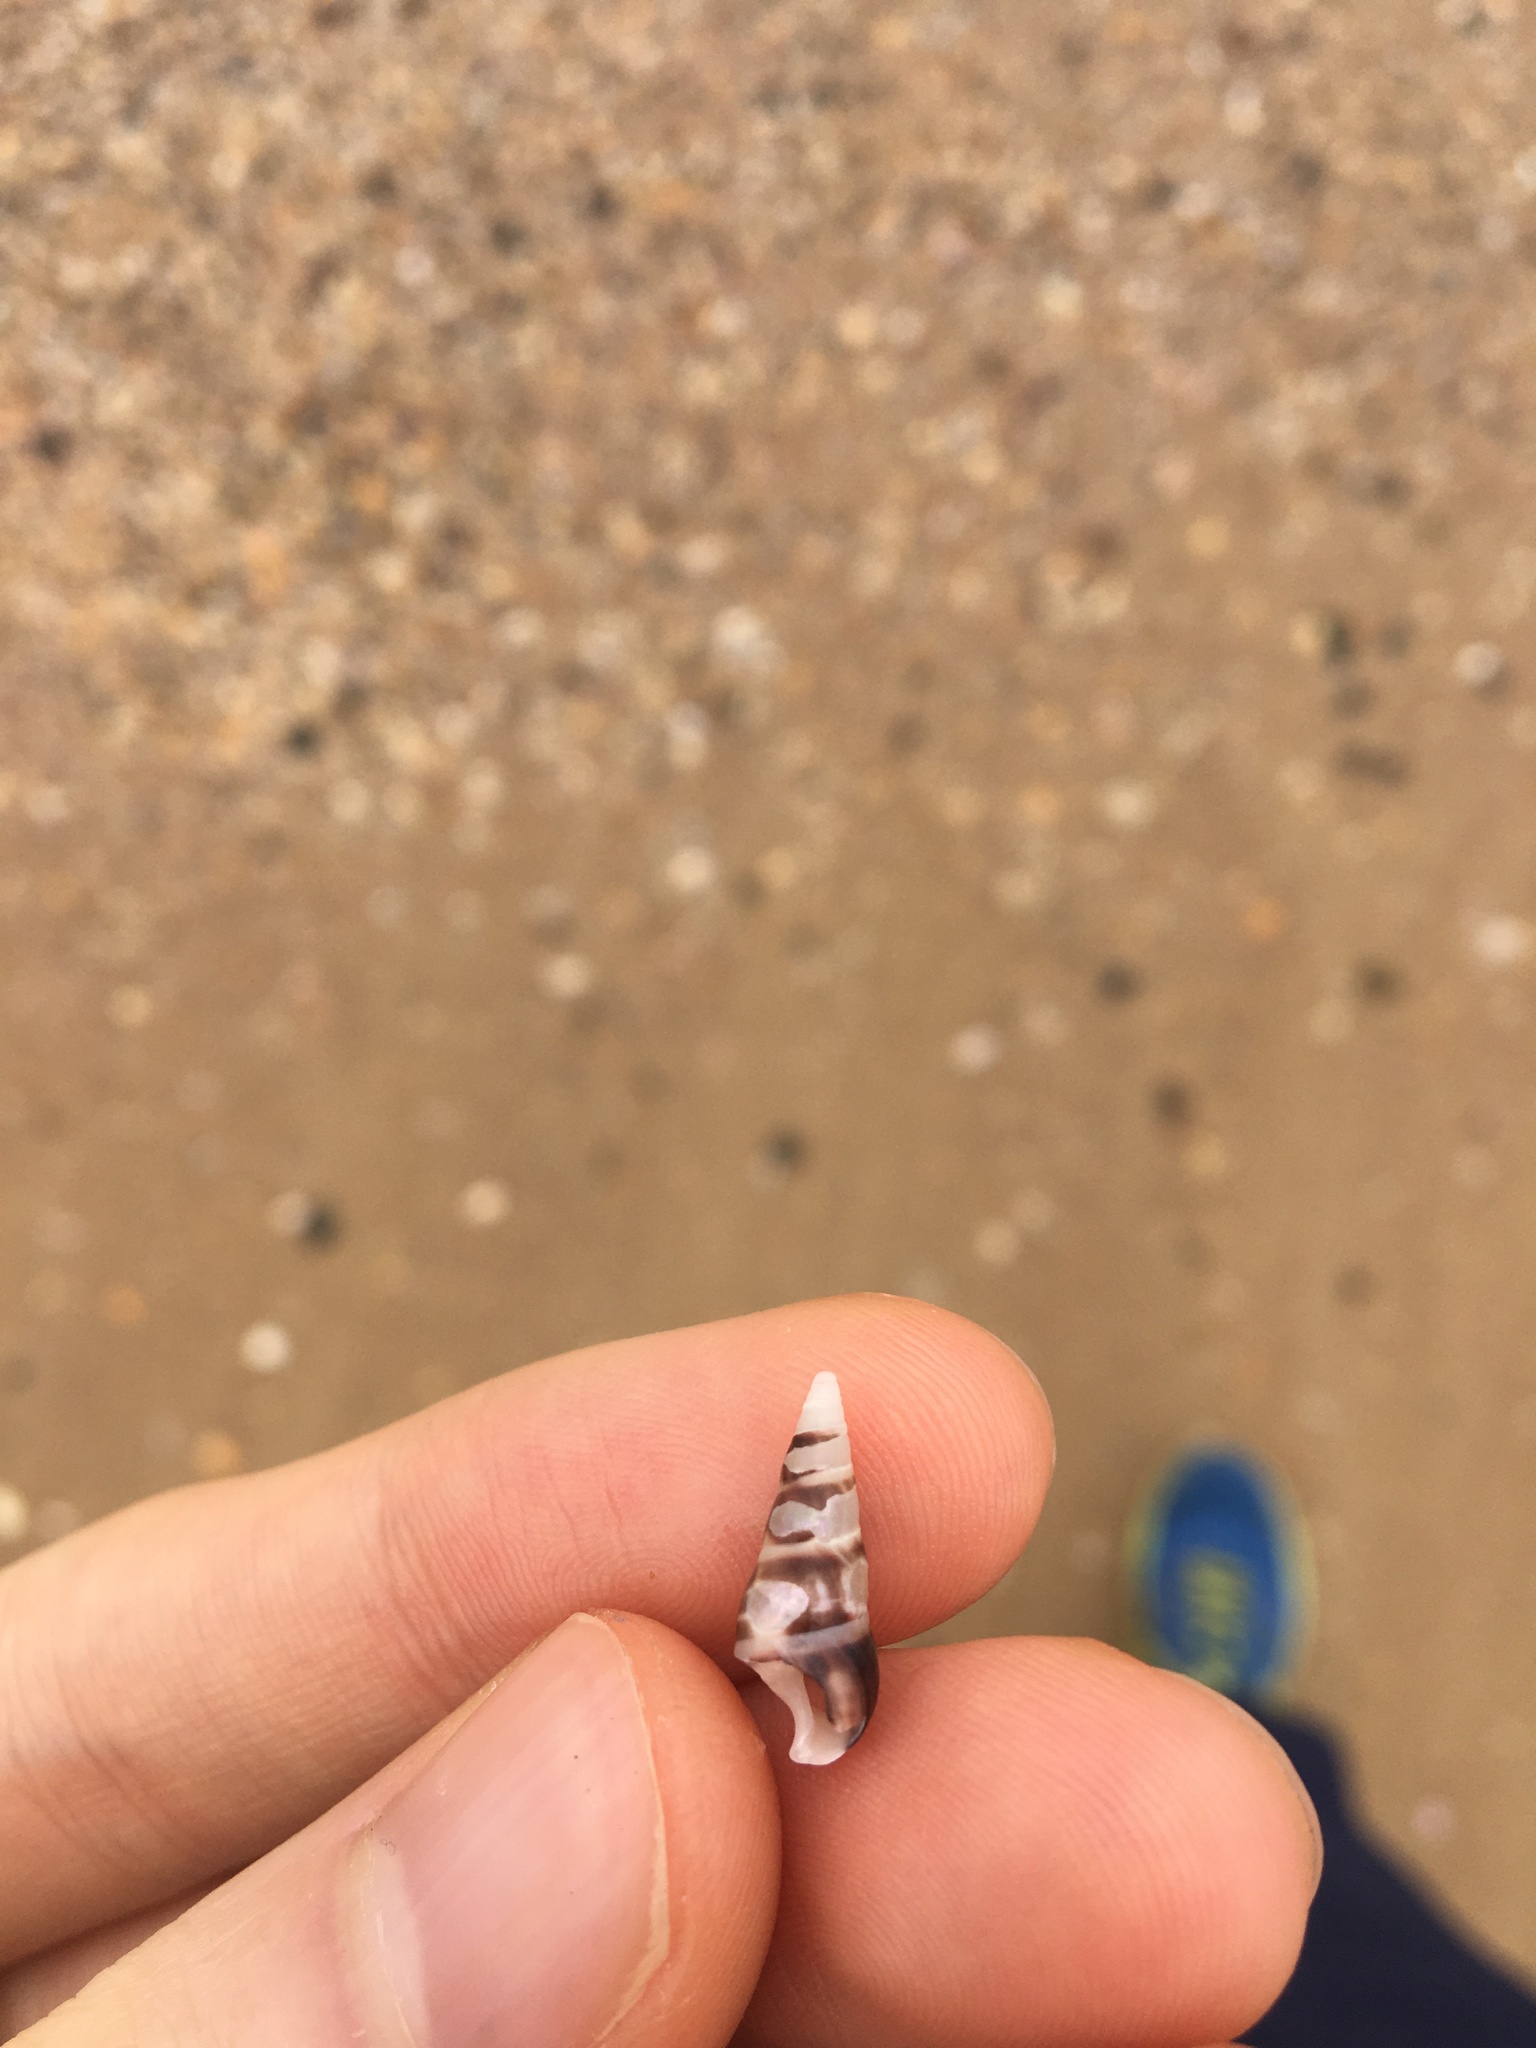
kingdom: Animalia
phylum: Mollusca
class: Gastropoda
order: Trochida
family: Trochidae
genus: Bankivia
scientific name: Bankivia fasciata
